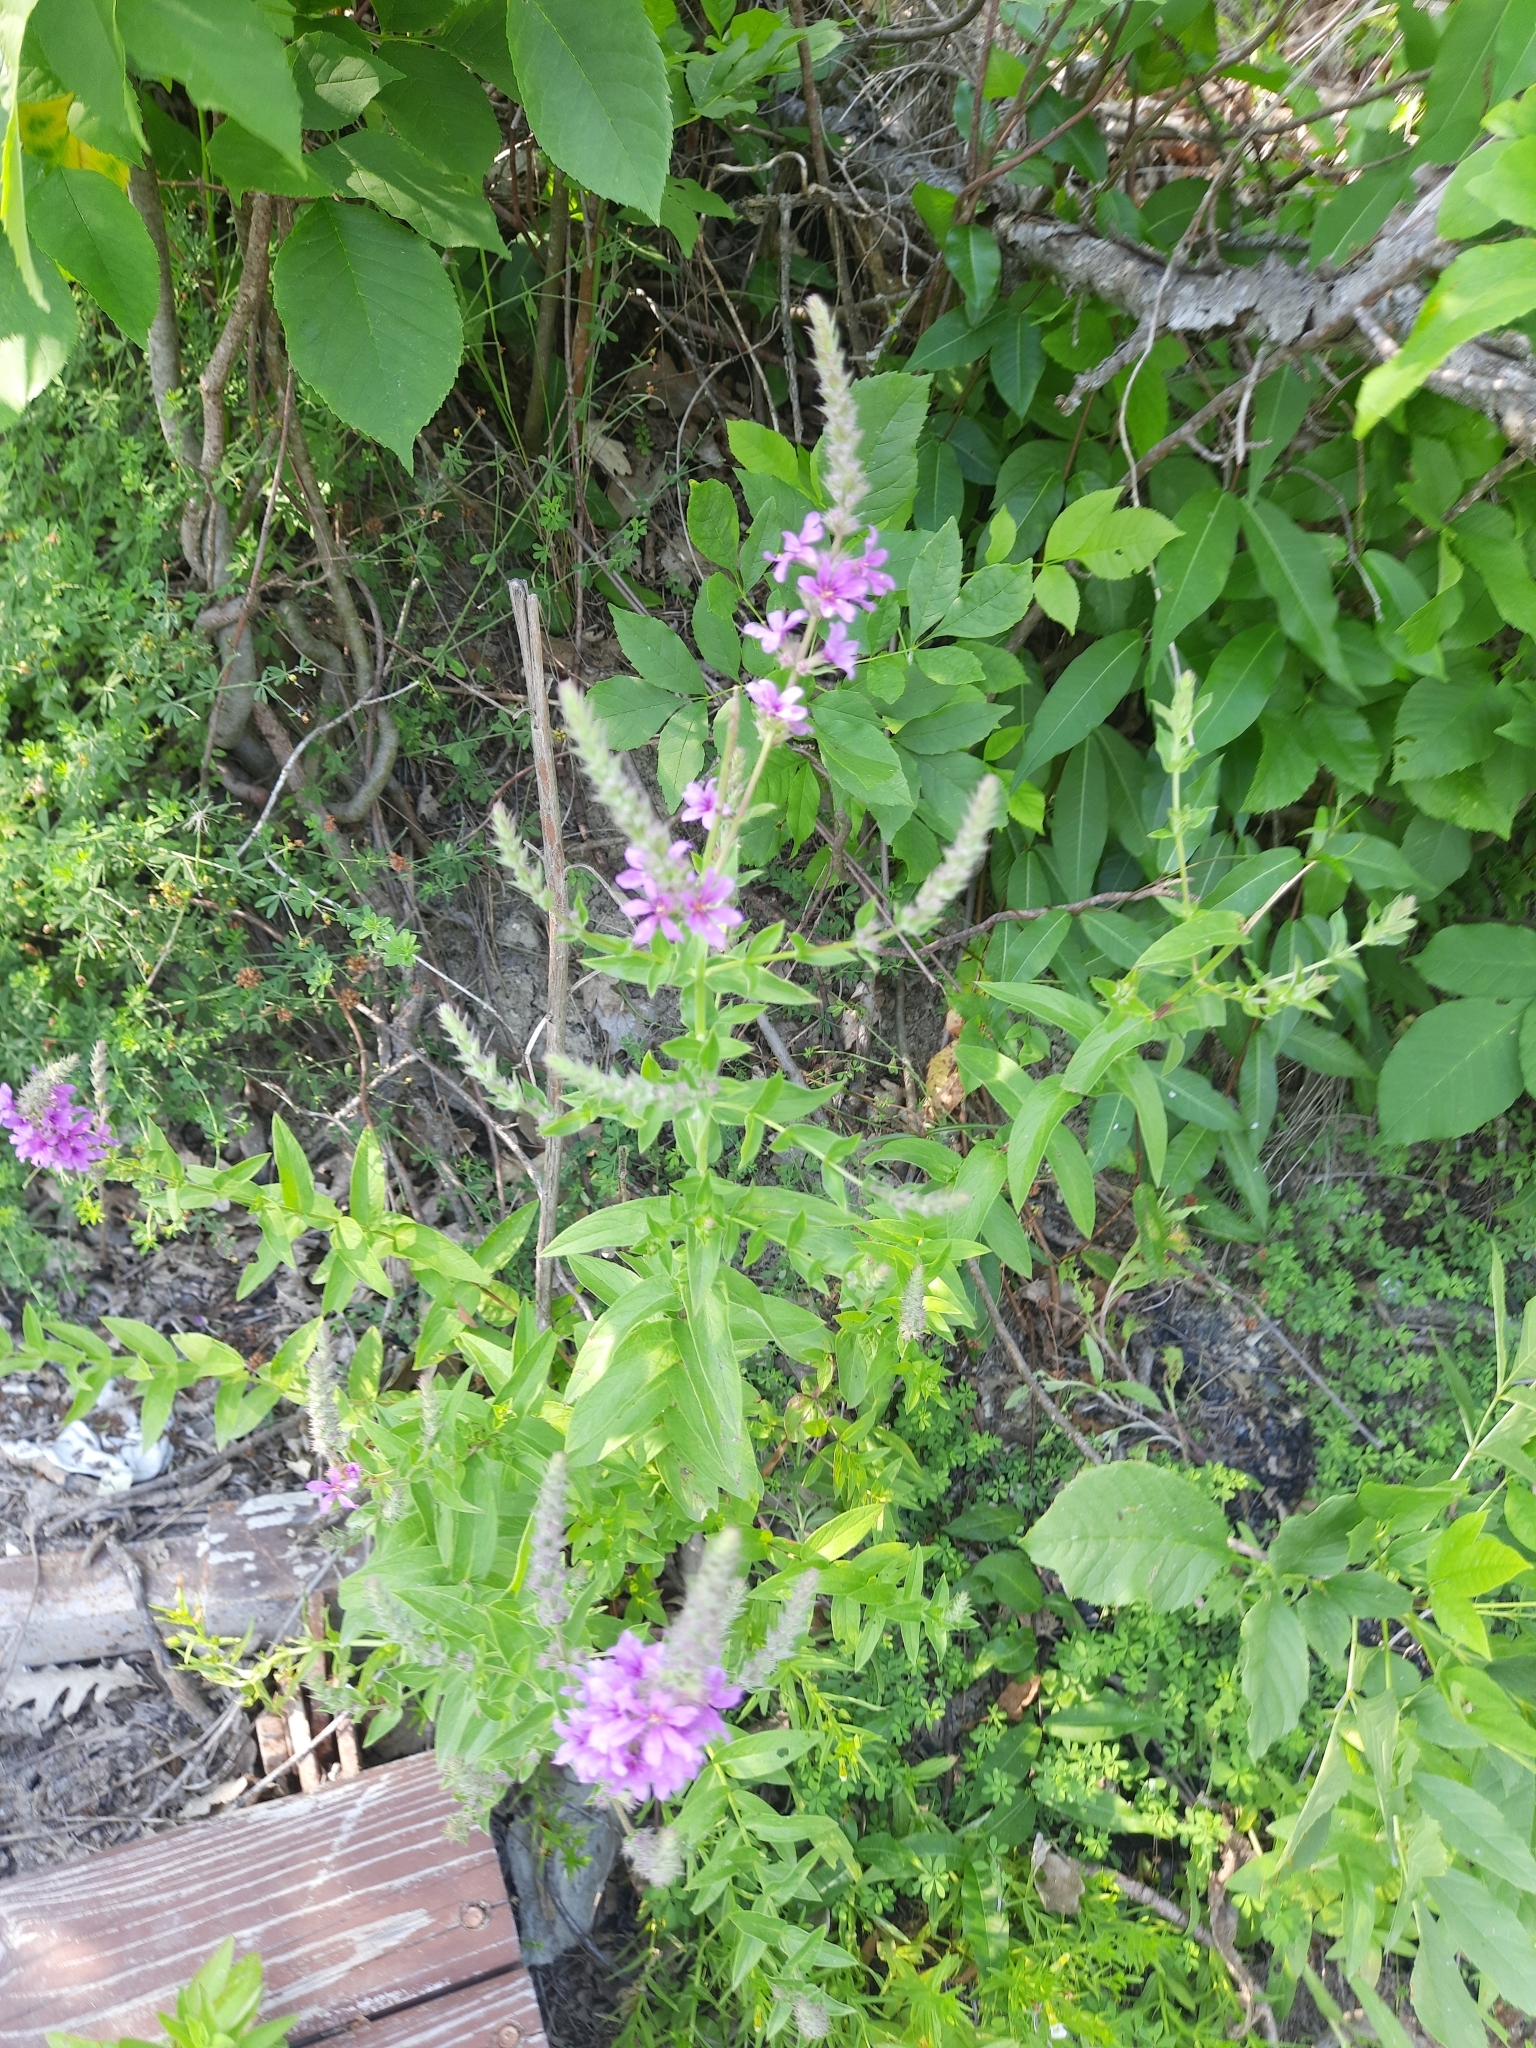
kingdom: Plantae
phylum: Tracheophyta
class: Magnoliopsida
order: Myrtales
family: Lythraceae
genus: Lythrum
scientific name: Lythrum salicaria
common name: Purple loosestrife
